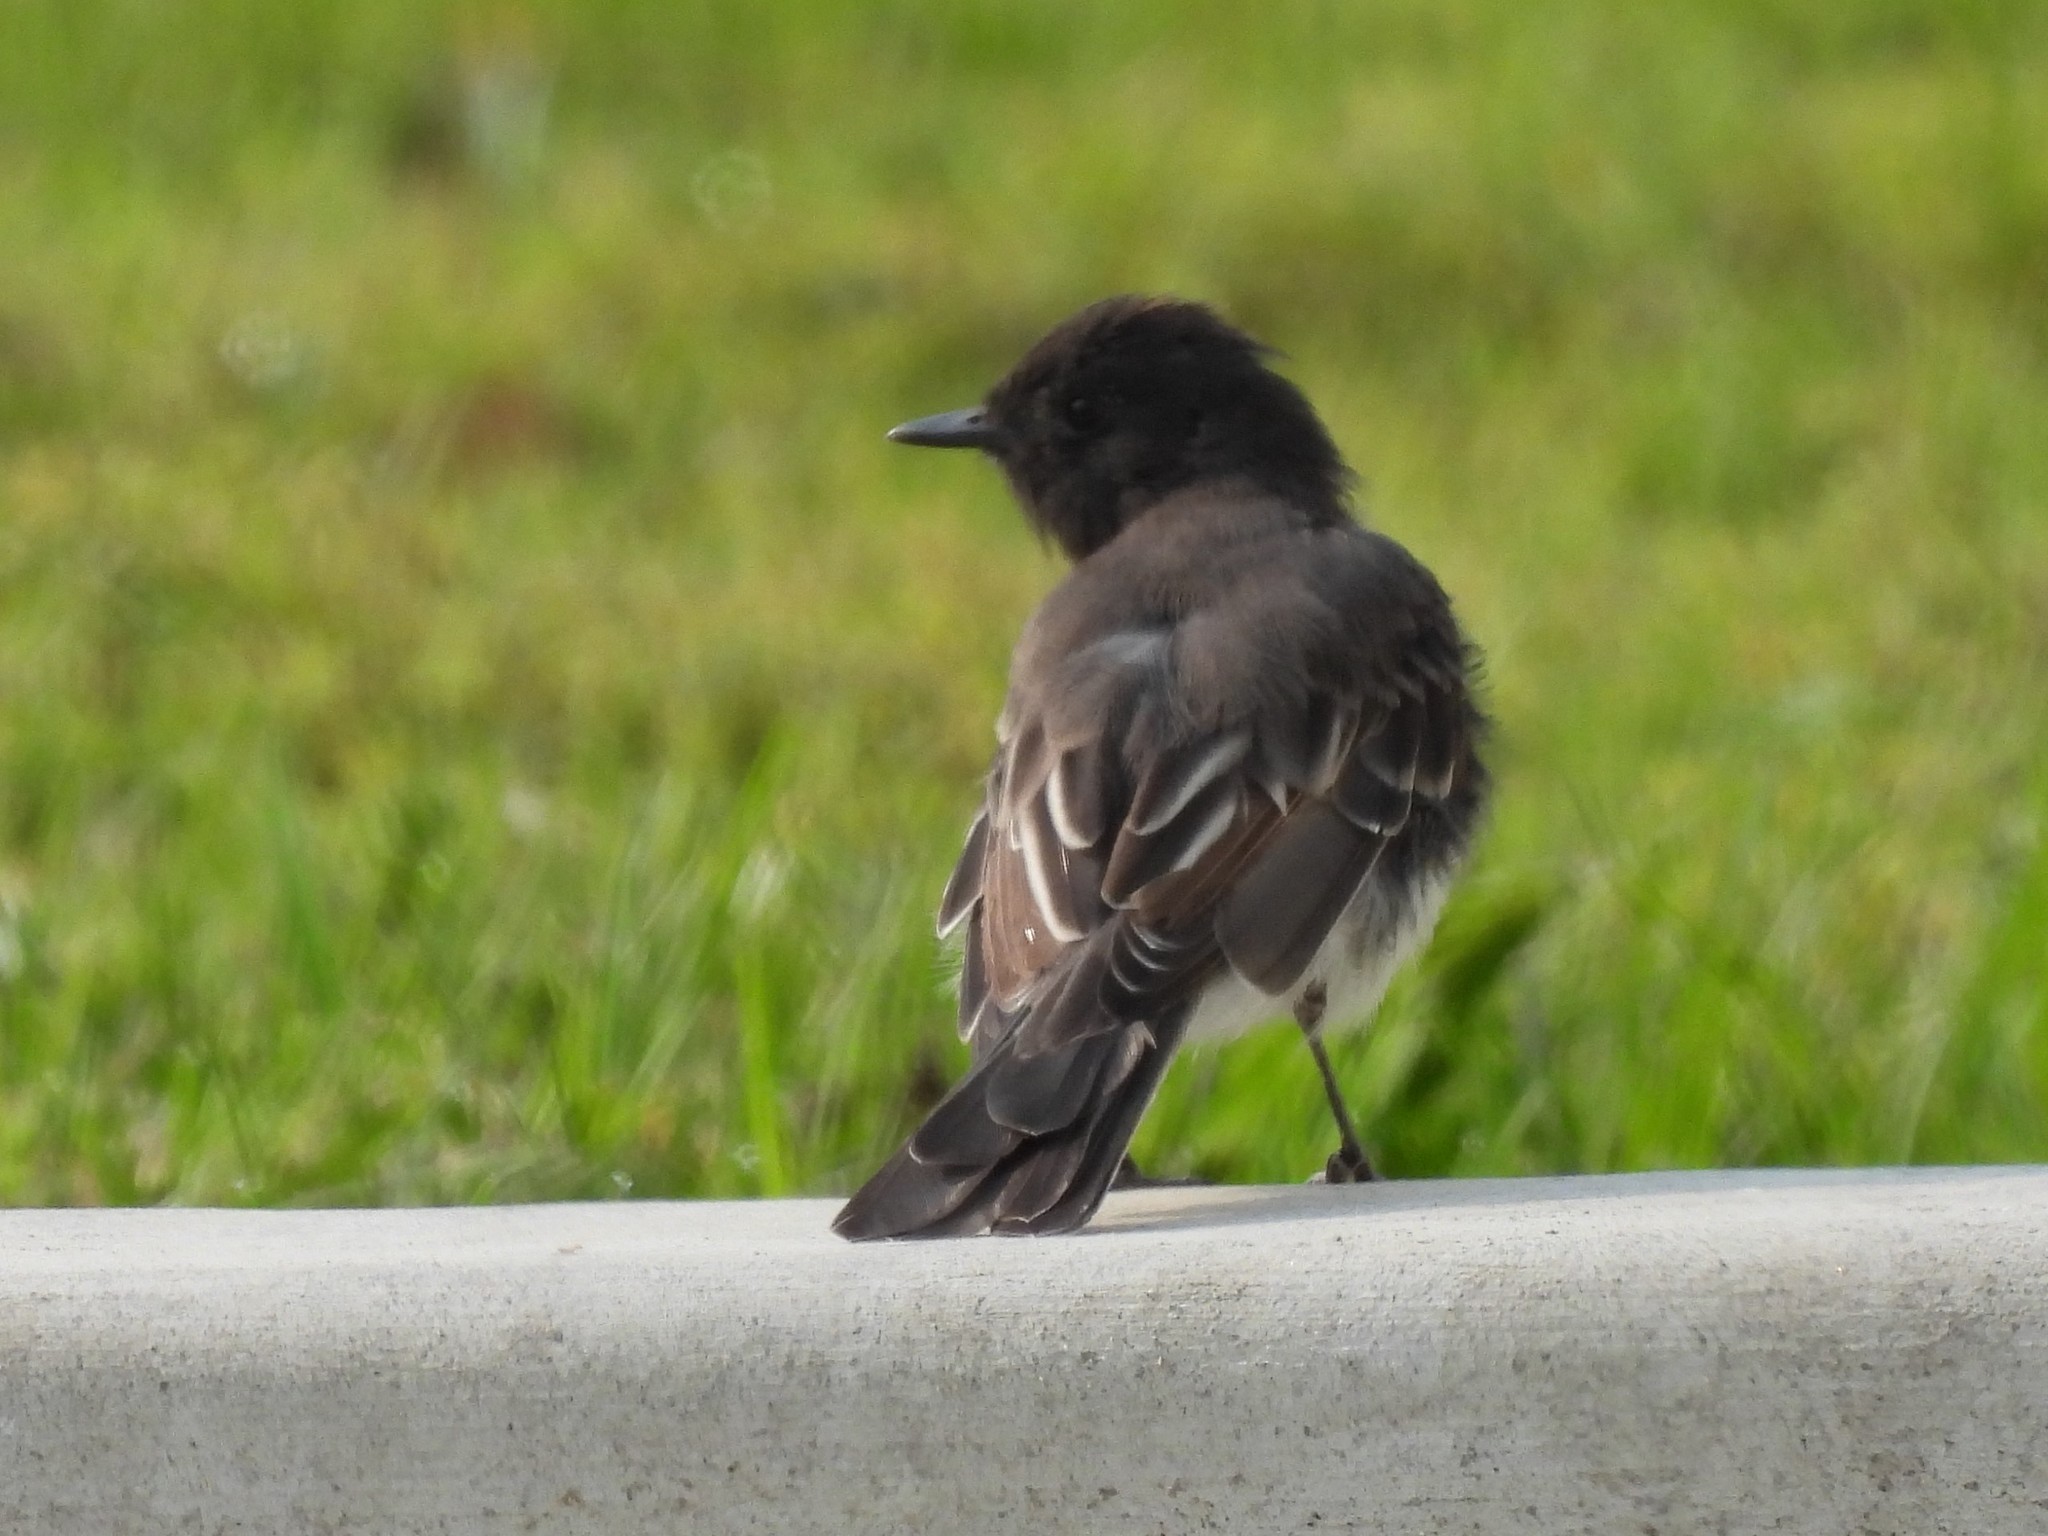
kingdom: Animalia
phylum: Chordata
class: Aves
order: Passeriformes
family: Tyrannidae
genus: Sayornis
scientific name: Sayornis nigricans
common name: Black phoebe
